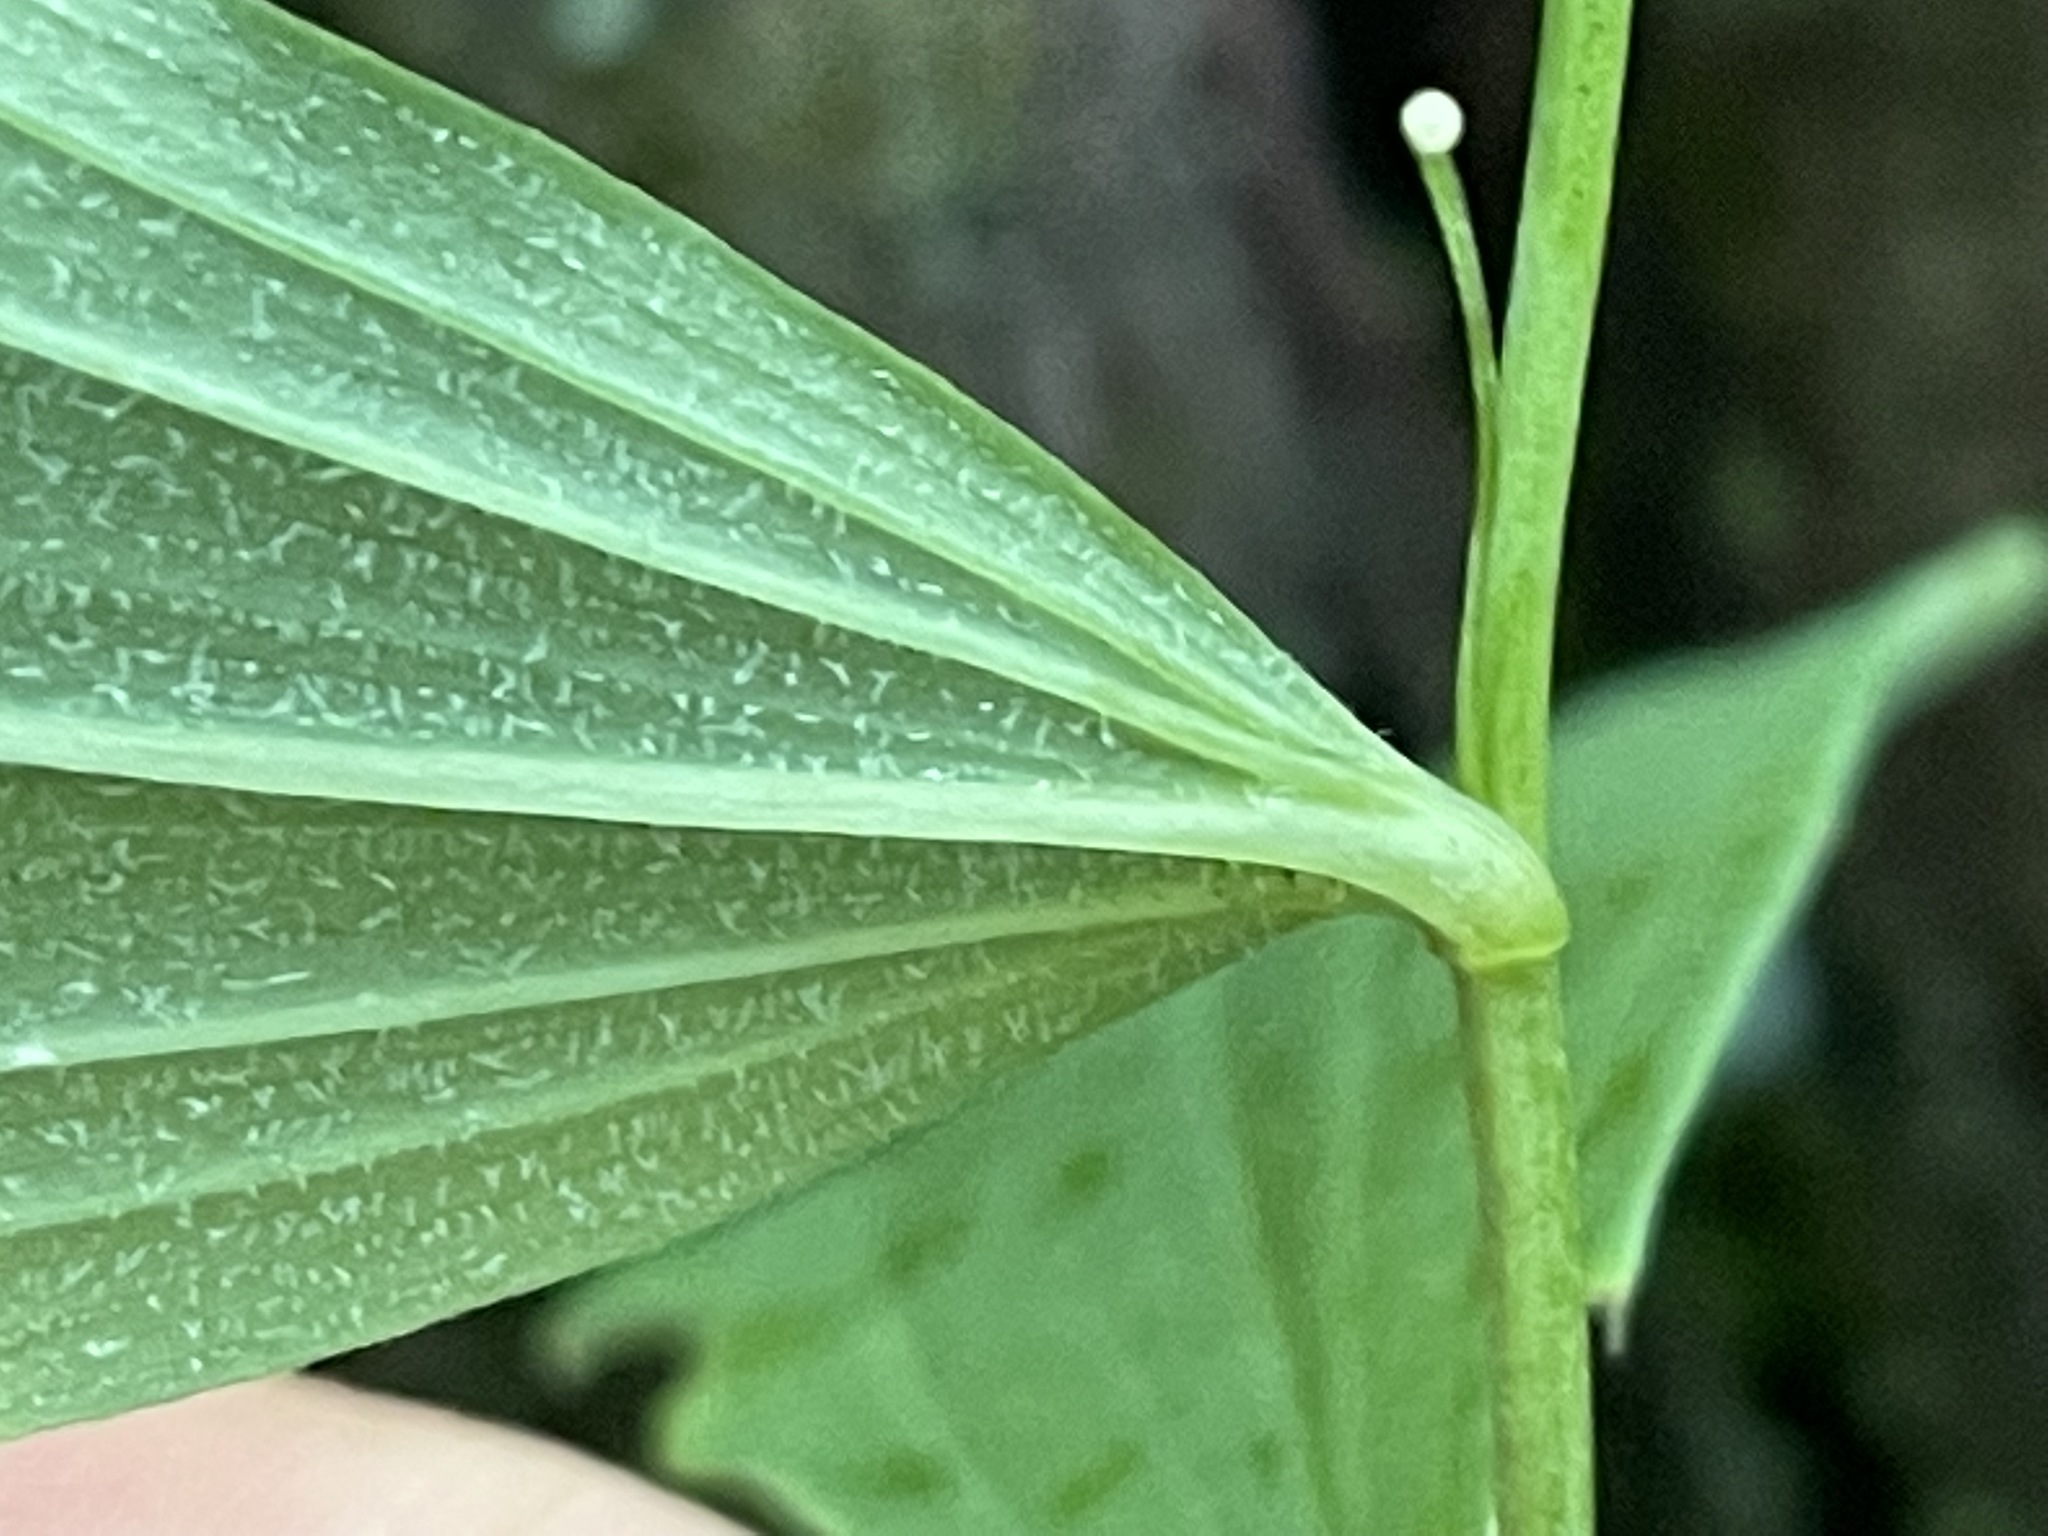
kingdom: Plantae
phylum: Tracheophyta
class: Liliopsida
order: Asparagales
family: Asparagaceae
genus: Polygonatum
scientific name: Polygonatum pubescens
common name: Downy solomon's seal
